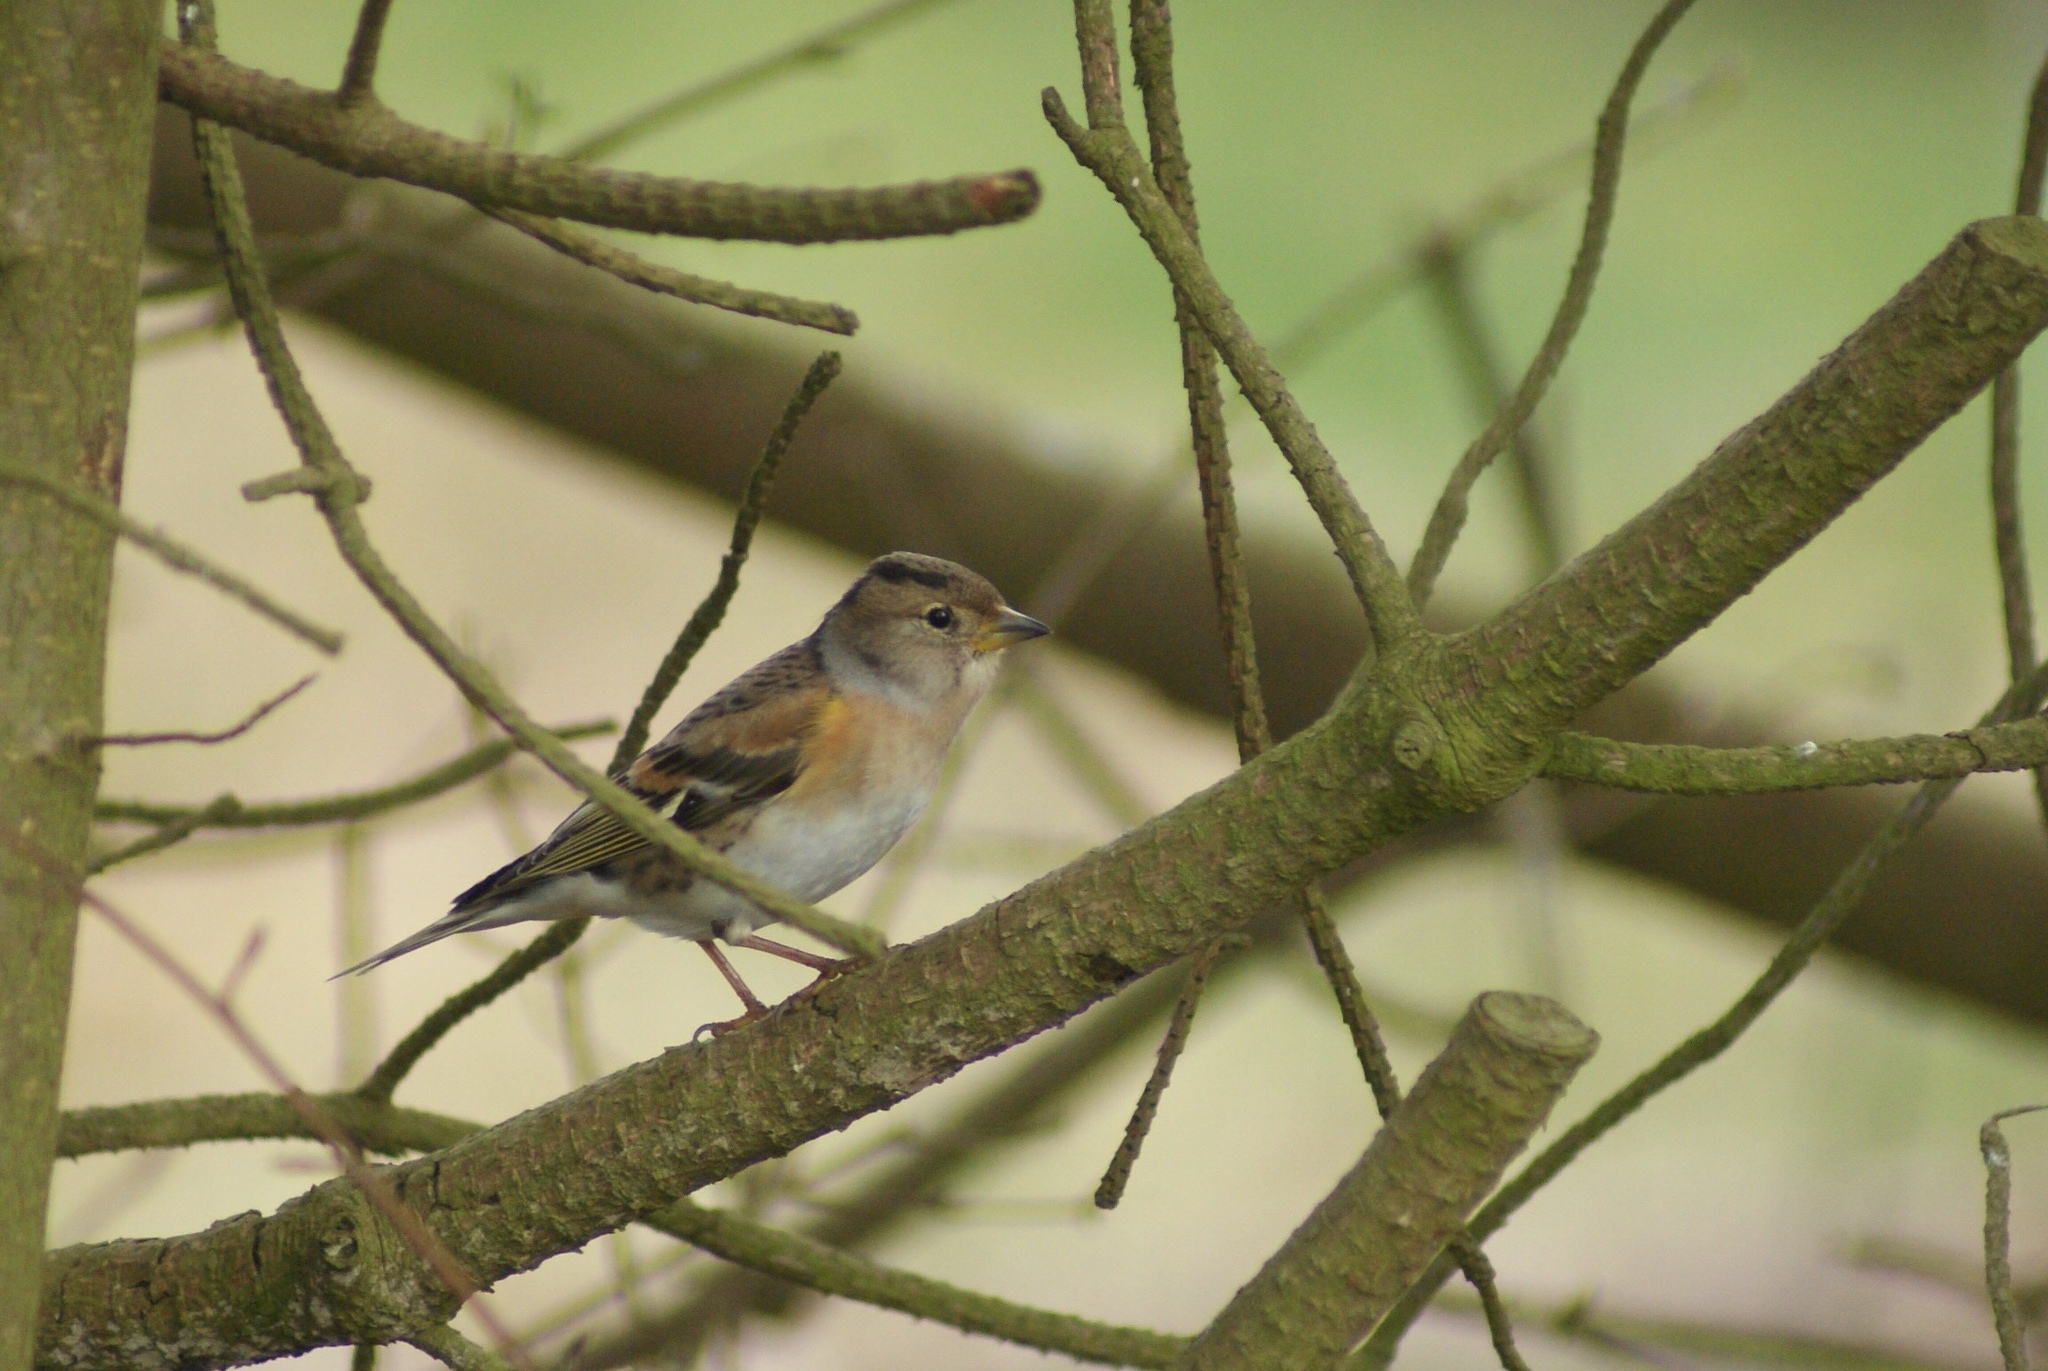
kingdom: Animalia
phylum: Chordata
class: Aves
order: Passeriformes
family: Fringillidae
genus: Fringilla
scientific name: Fringilla montifringilla
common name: Brambling
